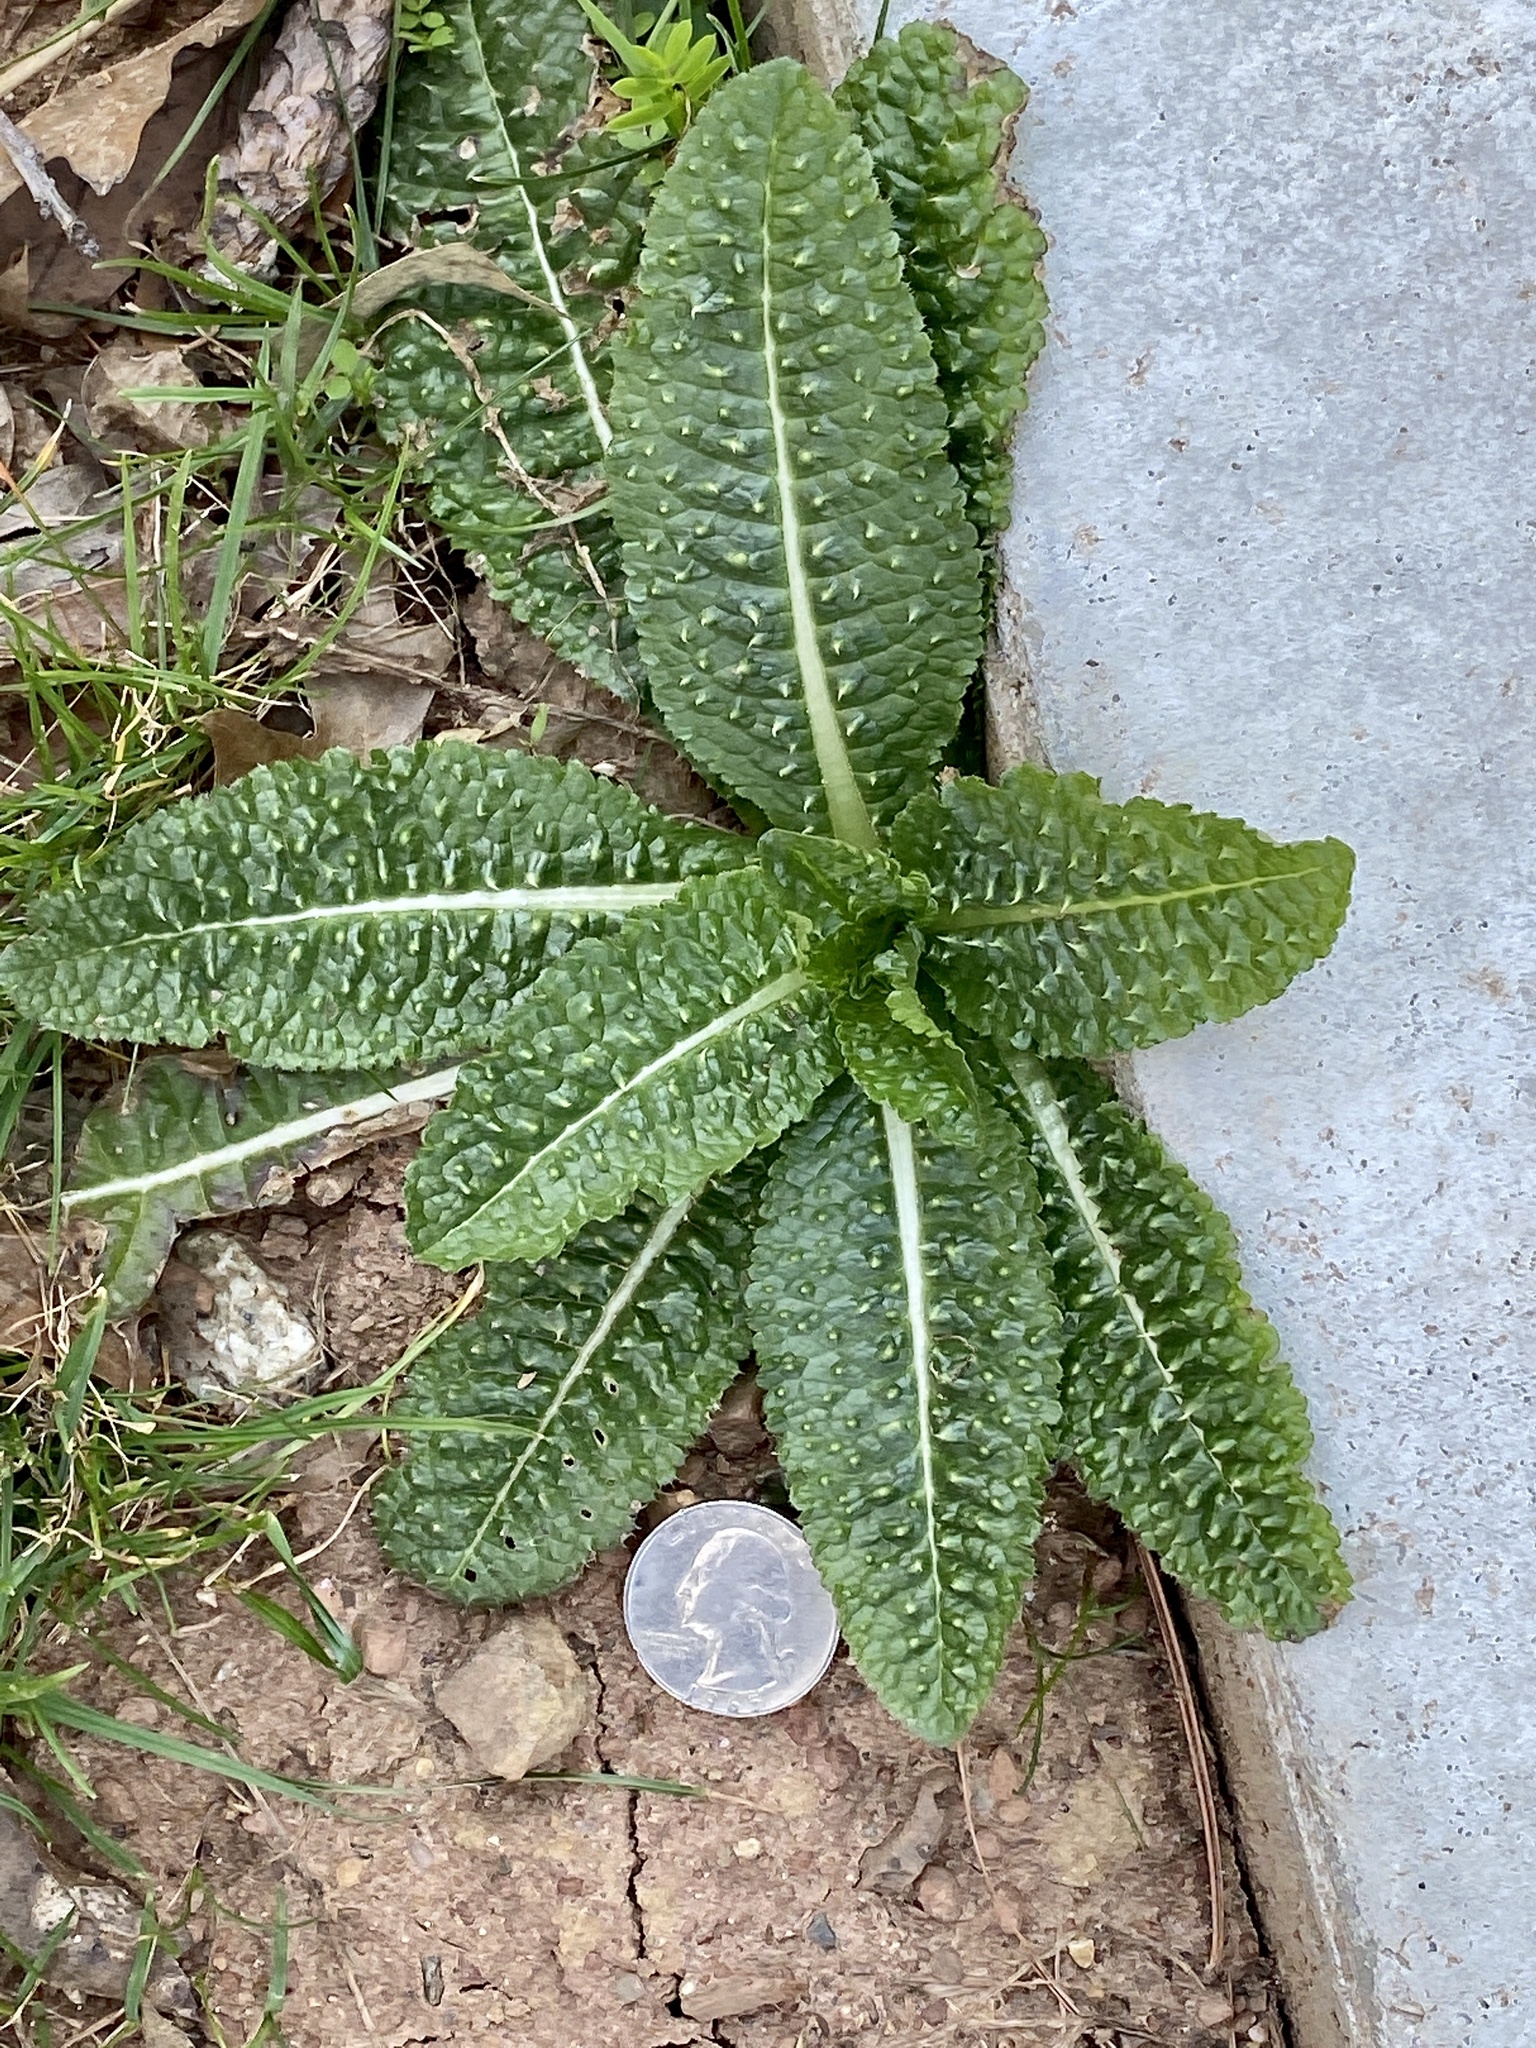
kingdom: Plantae
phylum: Tracheophyta
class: Magnoliopsida
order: Dipsacales
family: Caprifoliaceae
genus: Dipsacus
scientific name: Dipsacus fullonum
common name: Teasel
